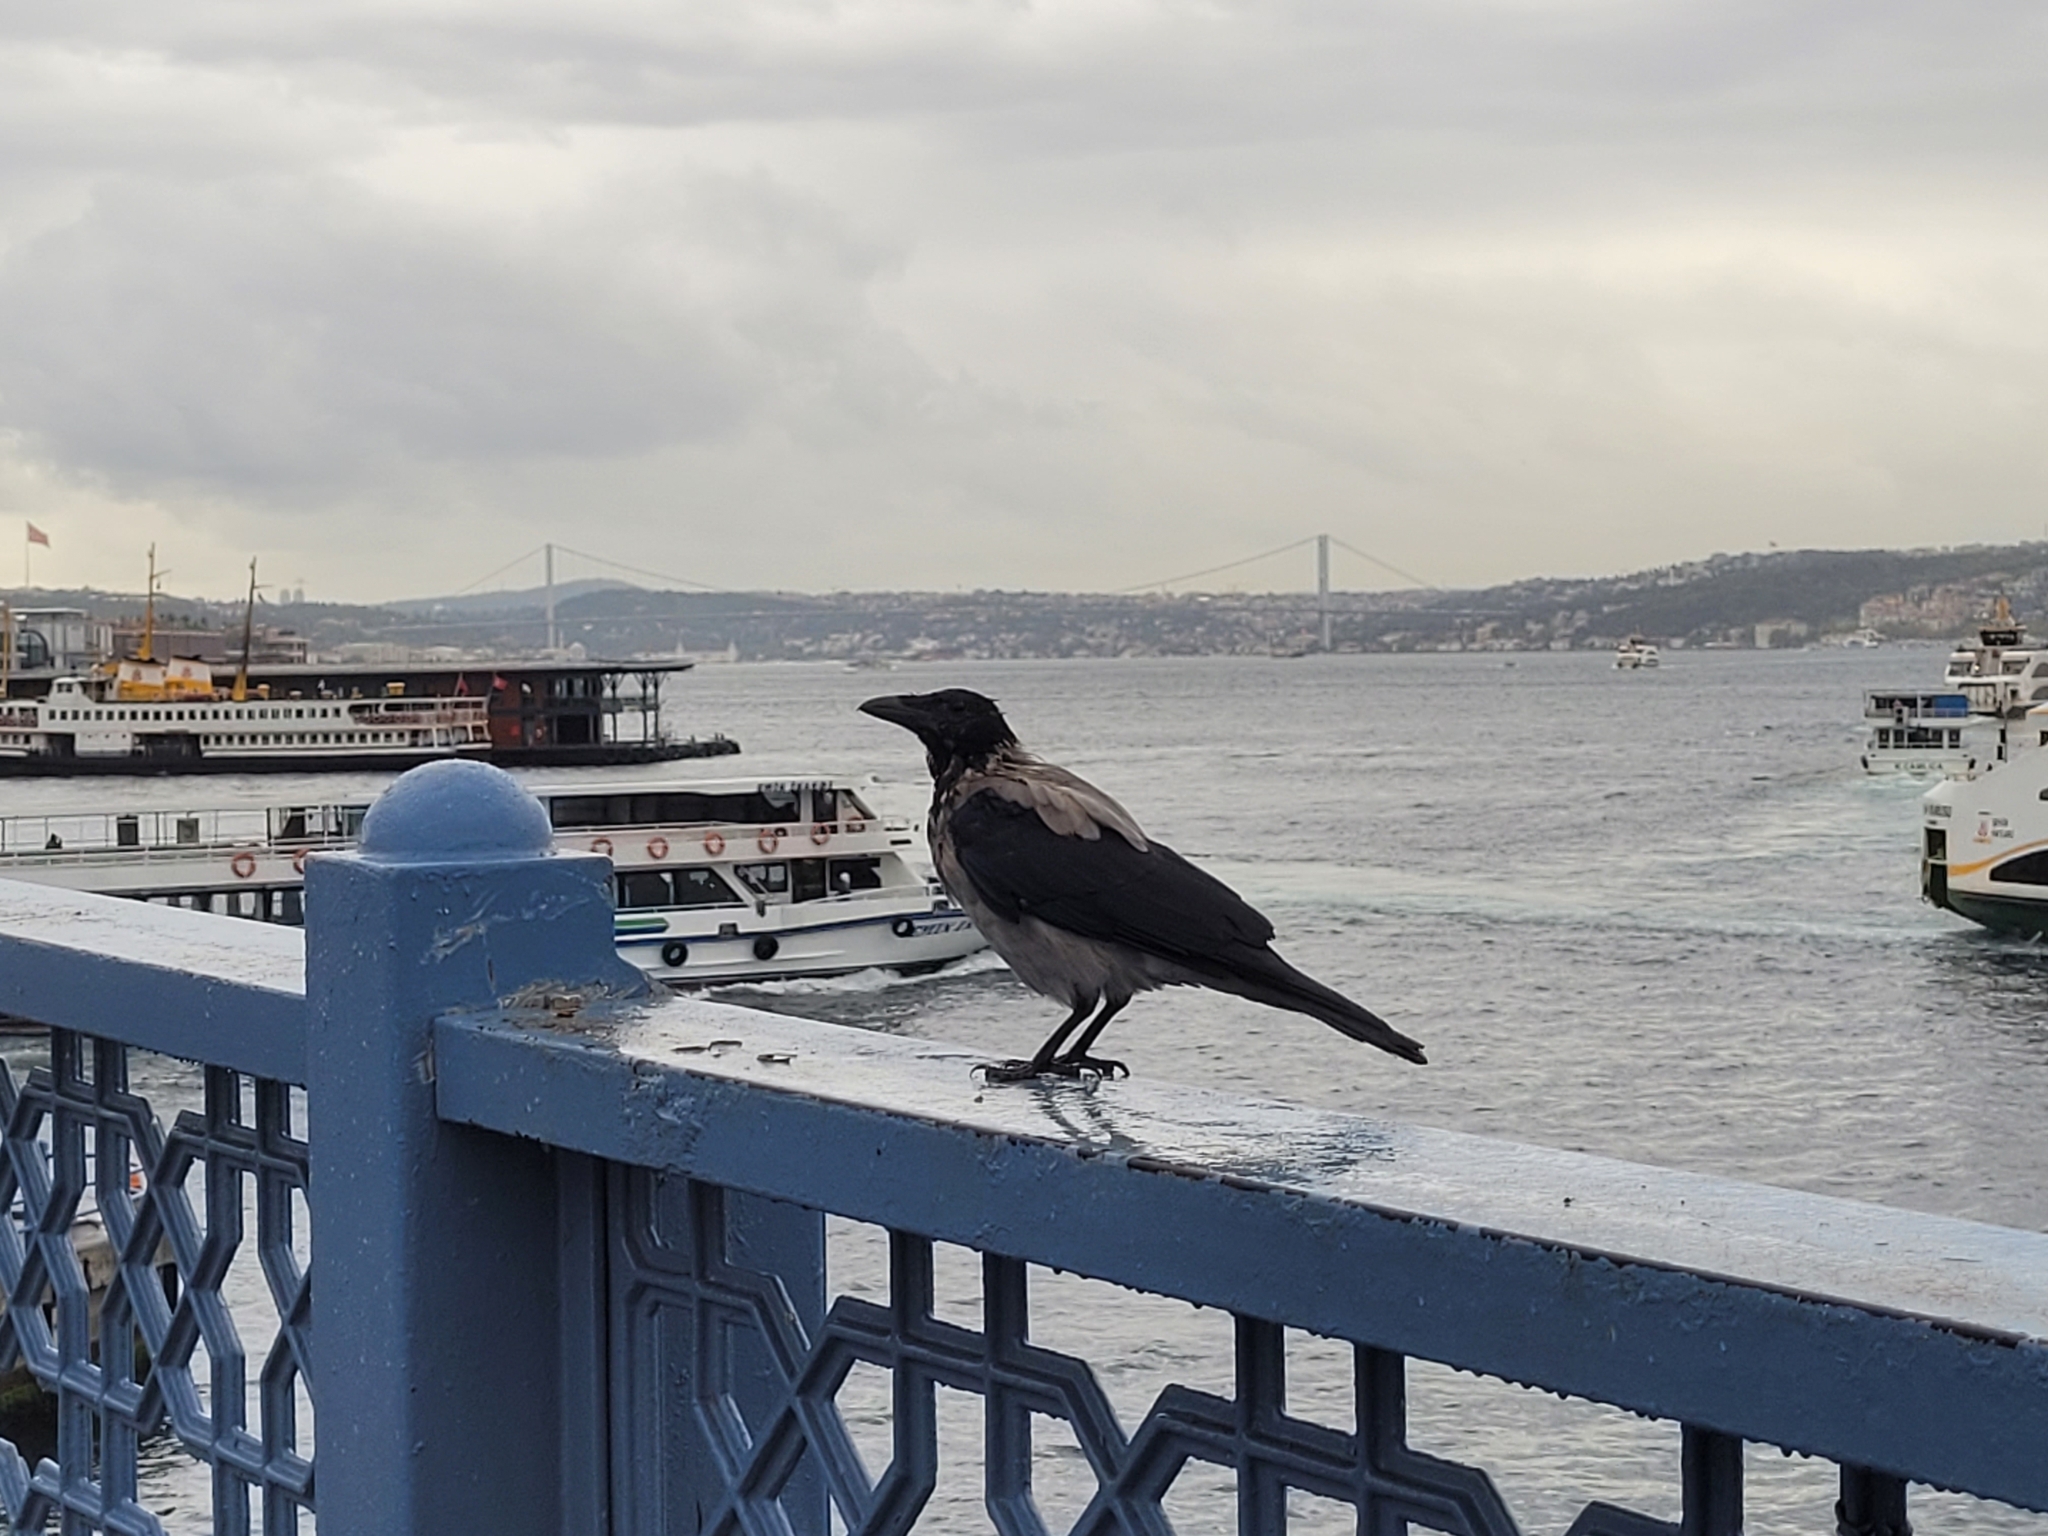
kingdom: Animalia
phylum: Chordata
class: Aves
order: Passeriformes
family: Corvidae
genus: Corvus
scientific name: Corvus cornix
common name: Hooded crow
